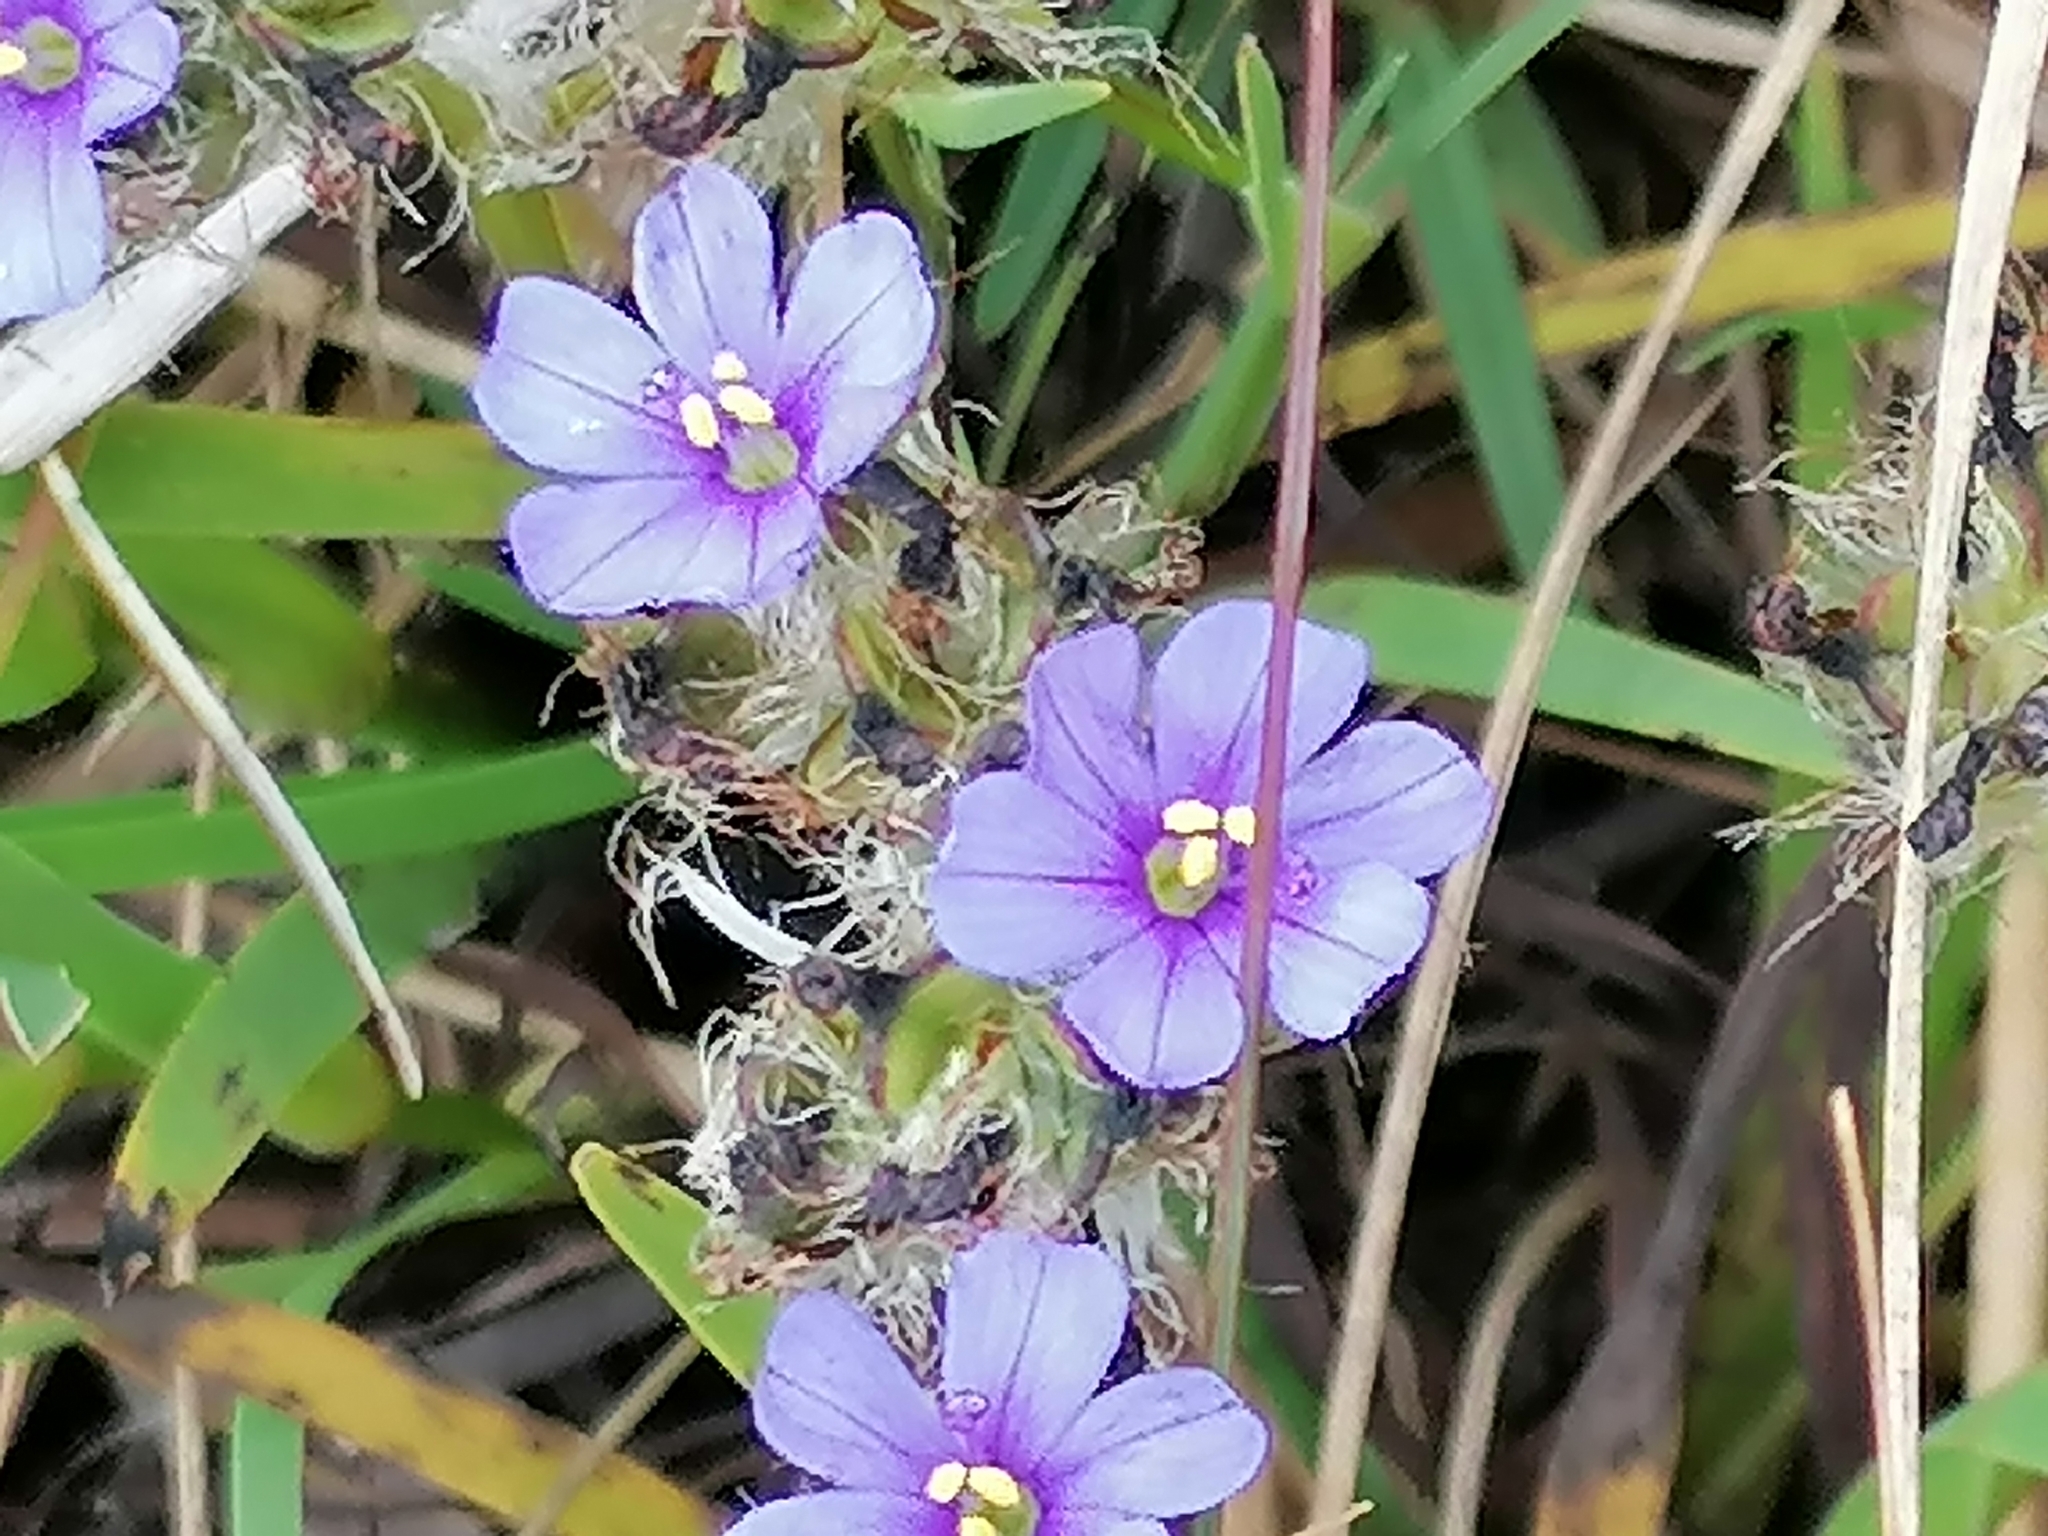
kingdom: Plantae
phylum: Tracheophyta
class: Liliopsida
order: Asparagales
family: Iridaceae
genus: Aristea
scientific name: Aristea africana
